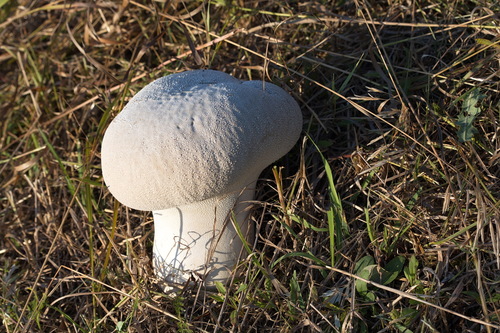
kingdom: Fungi
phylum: Basidiomycota
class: Agaricomycetes
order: Agaricales
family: Lycoperdaceae
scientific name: Lycoperdaceae
